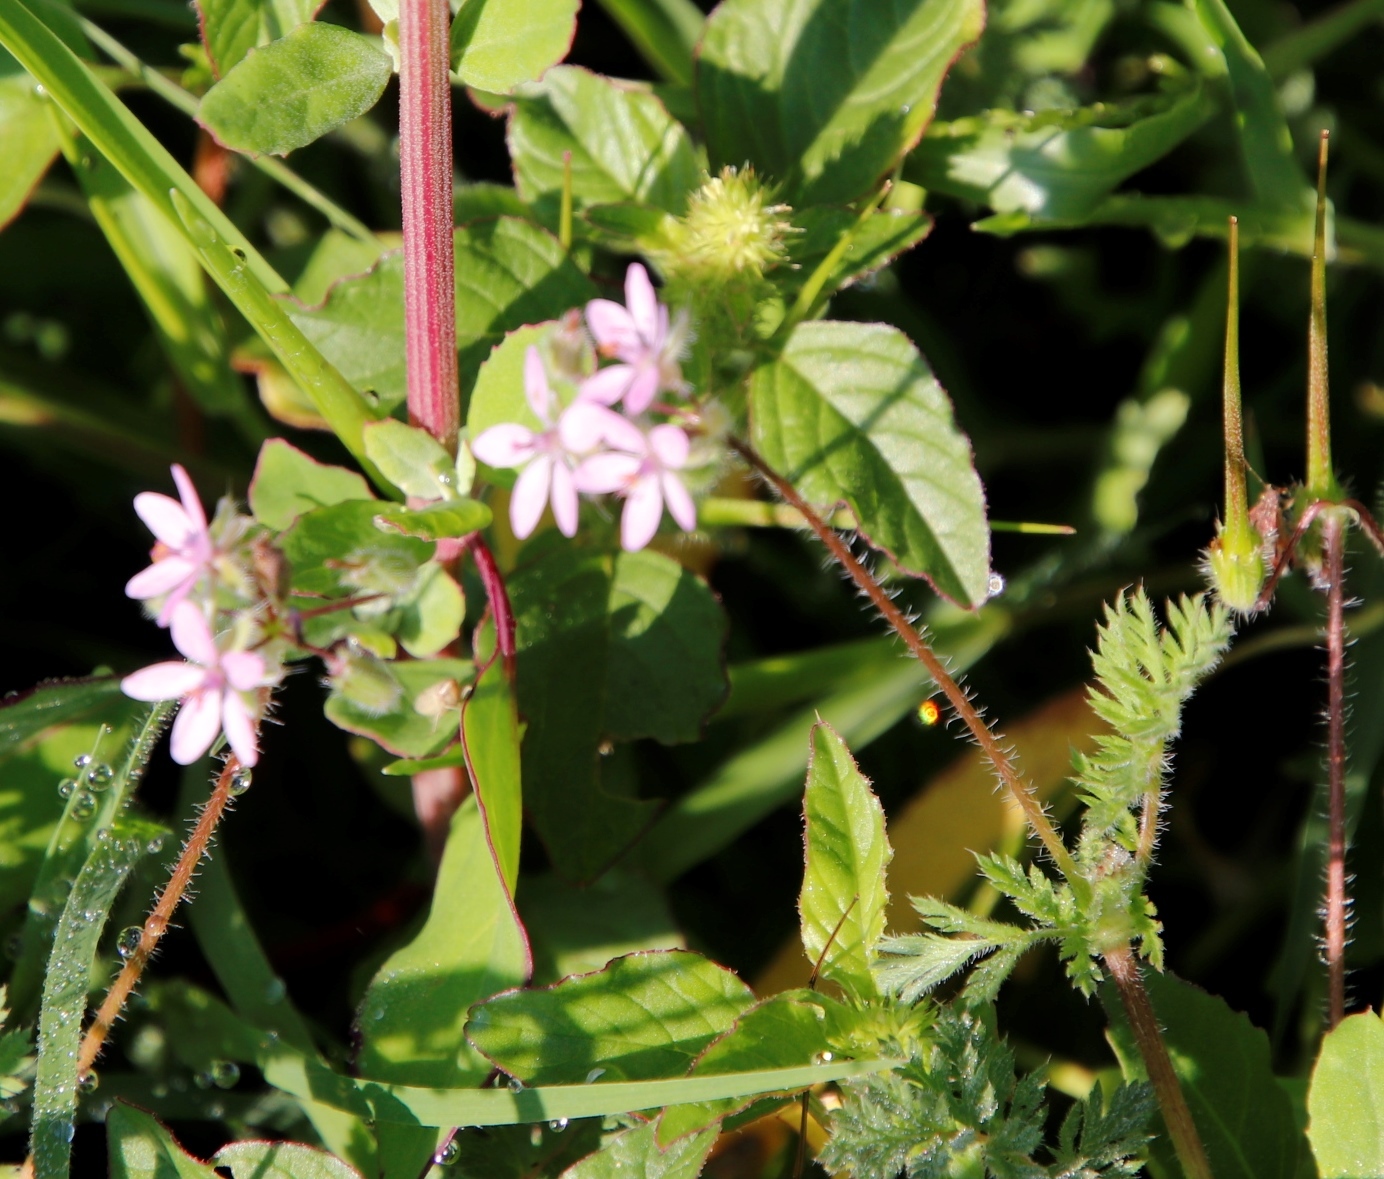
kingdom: Plantae
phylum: Tracheophyta
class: Magnoliopsida
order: Geraniales
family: Geraniaceae
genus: Erodium
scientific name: Erodium cicutarium
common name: Common stork's-bill
